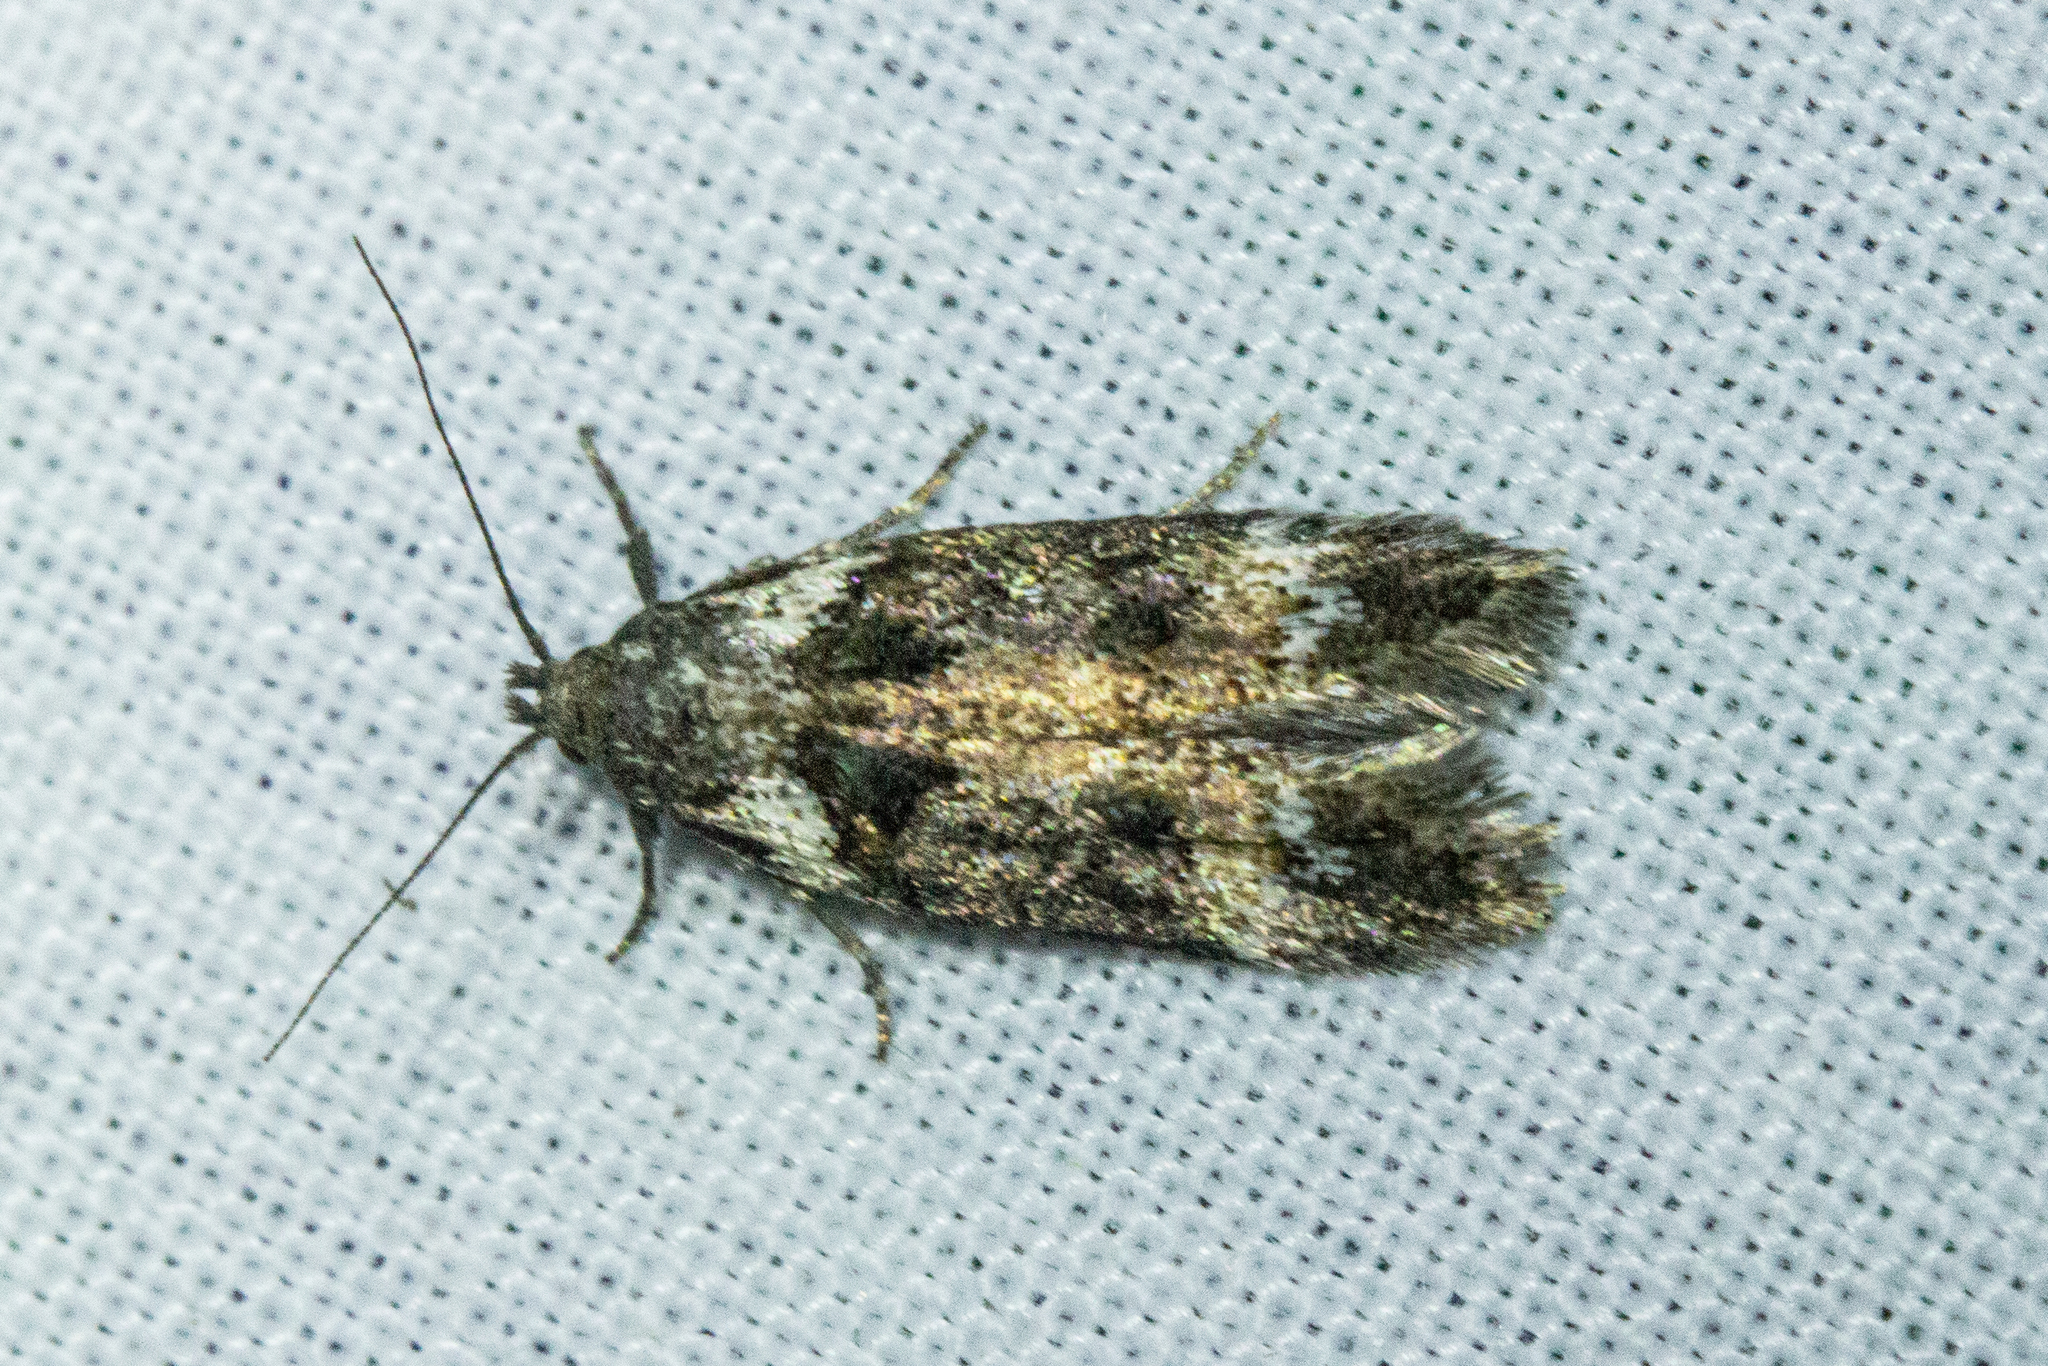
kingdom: Animalia
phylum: Arthropoda
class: Insecta
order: Lepidoptera
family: Oecophoridae
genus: Trachypepla
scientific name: Trachypepla conspicuella
